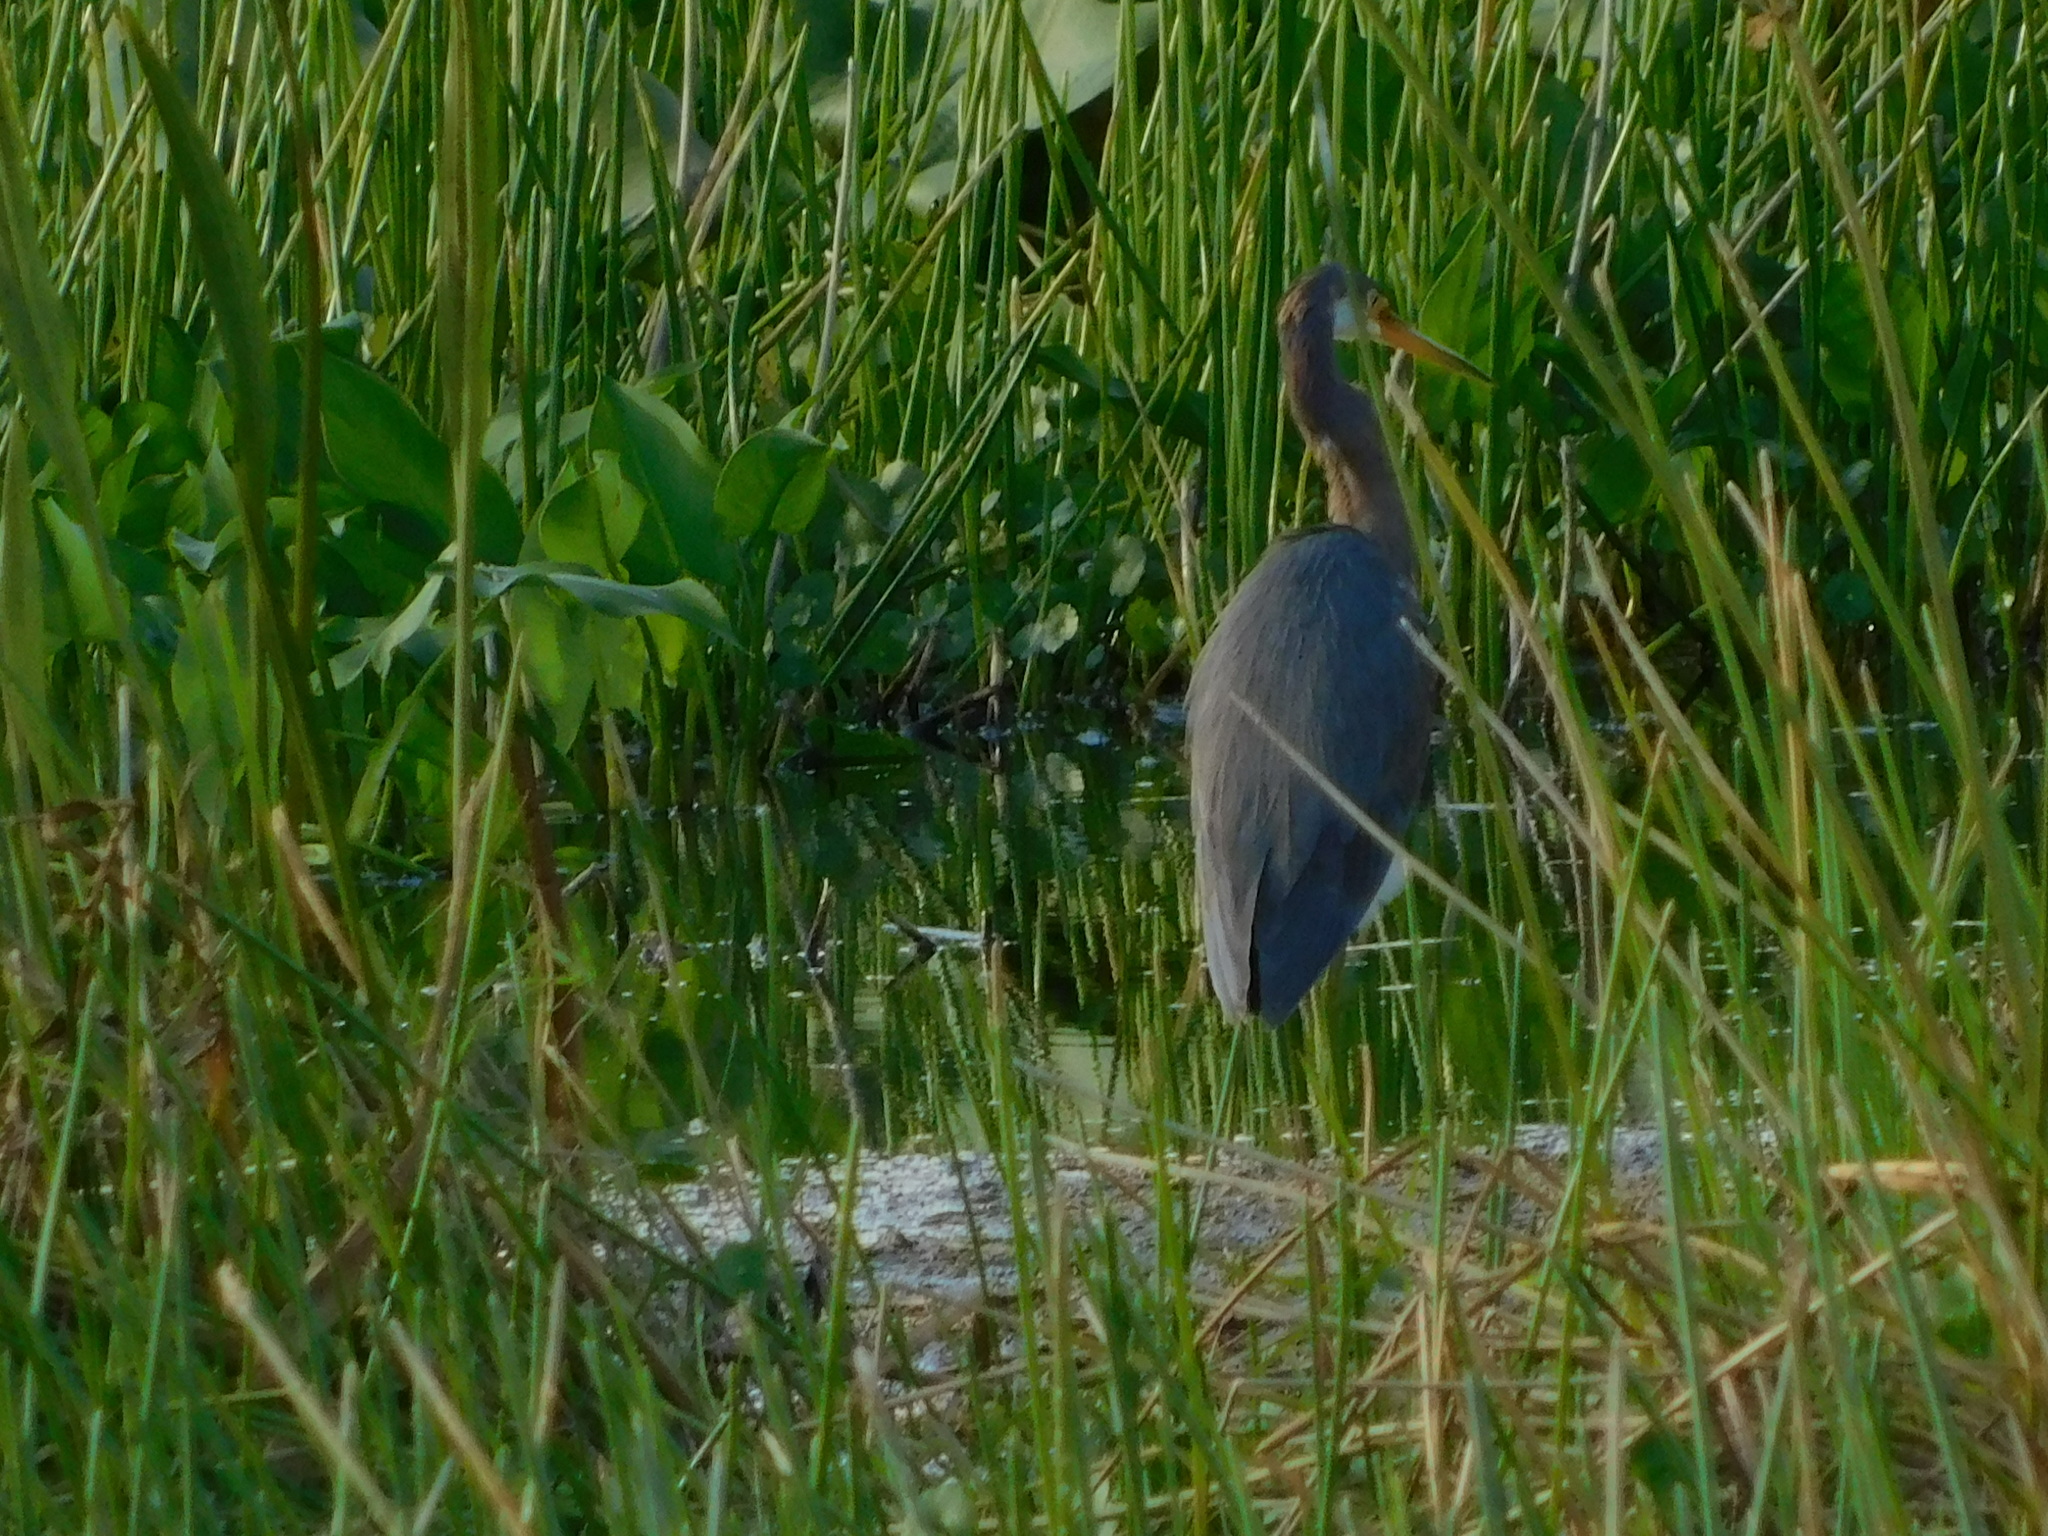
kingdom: Animalia
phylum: Chordata
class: Aves
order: Pelecaniformes
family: Ardeidae
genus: Egretta
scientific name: Egretta tricolor
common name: Tricolored heron
